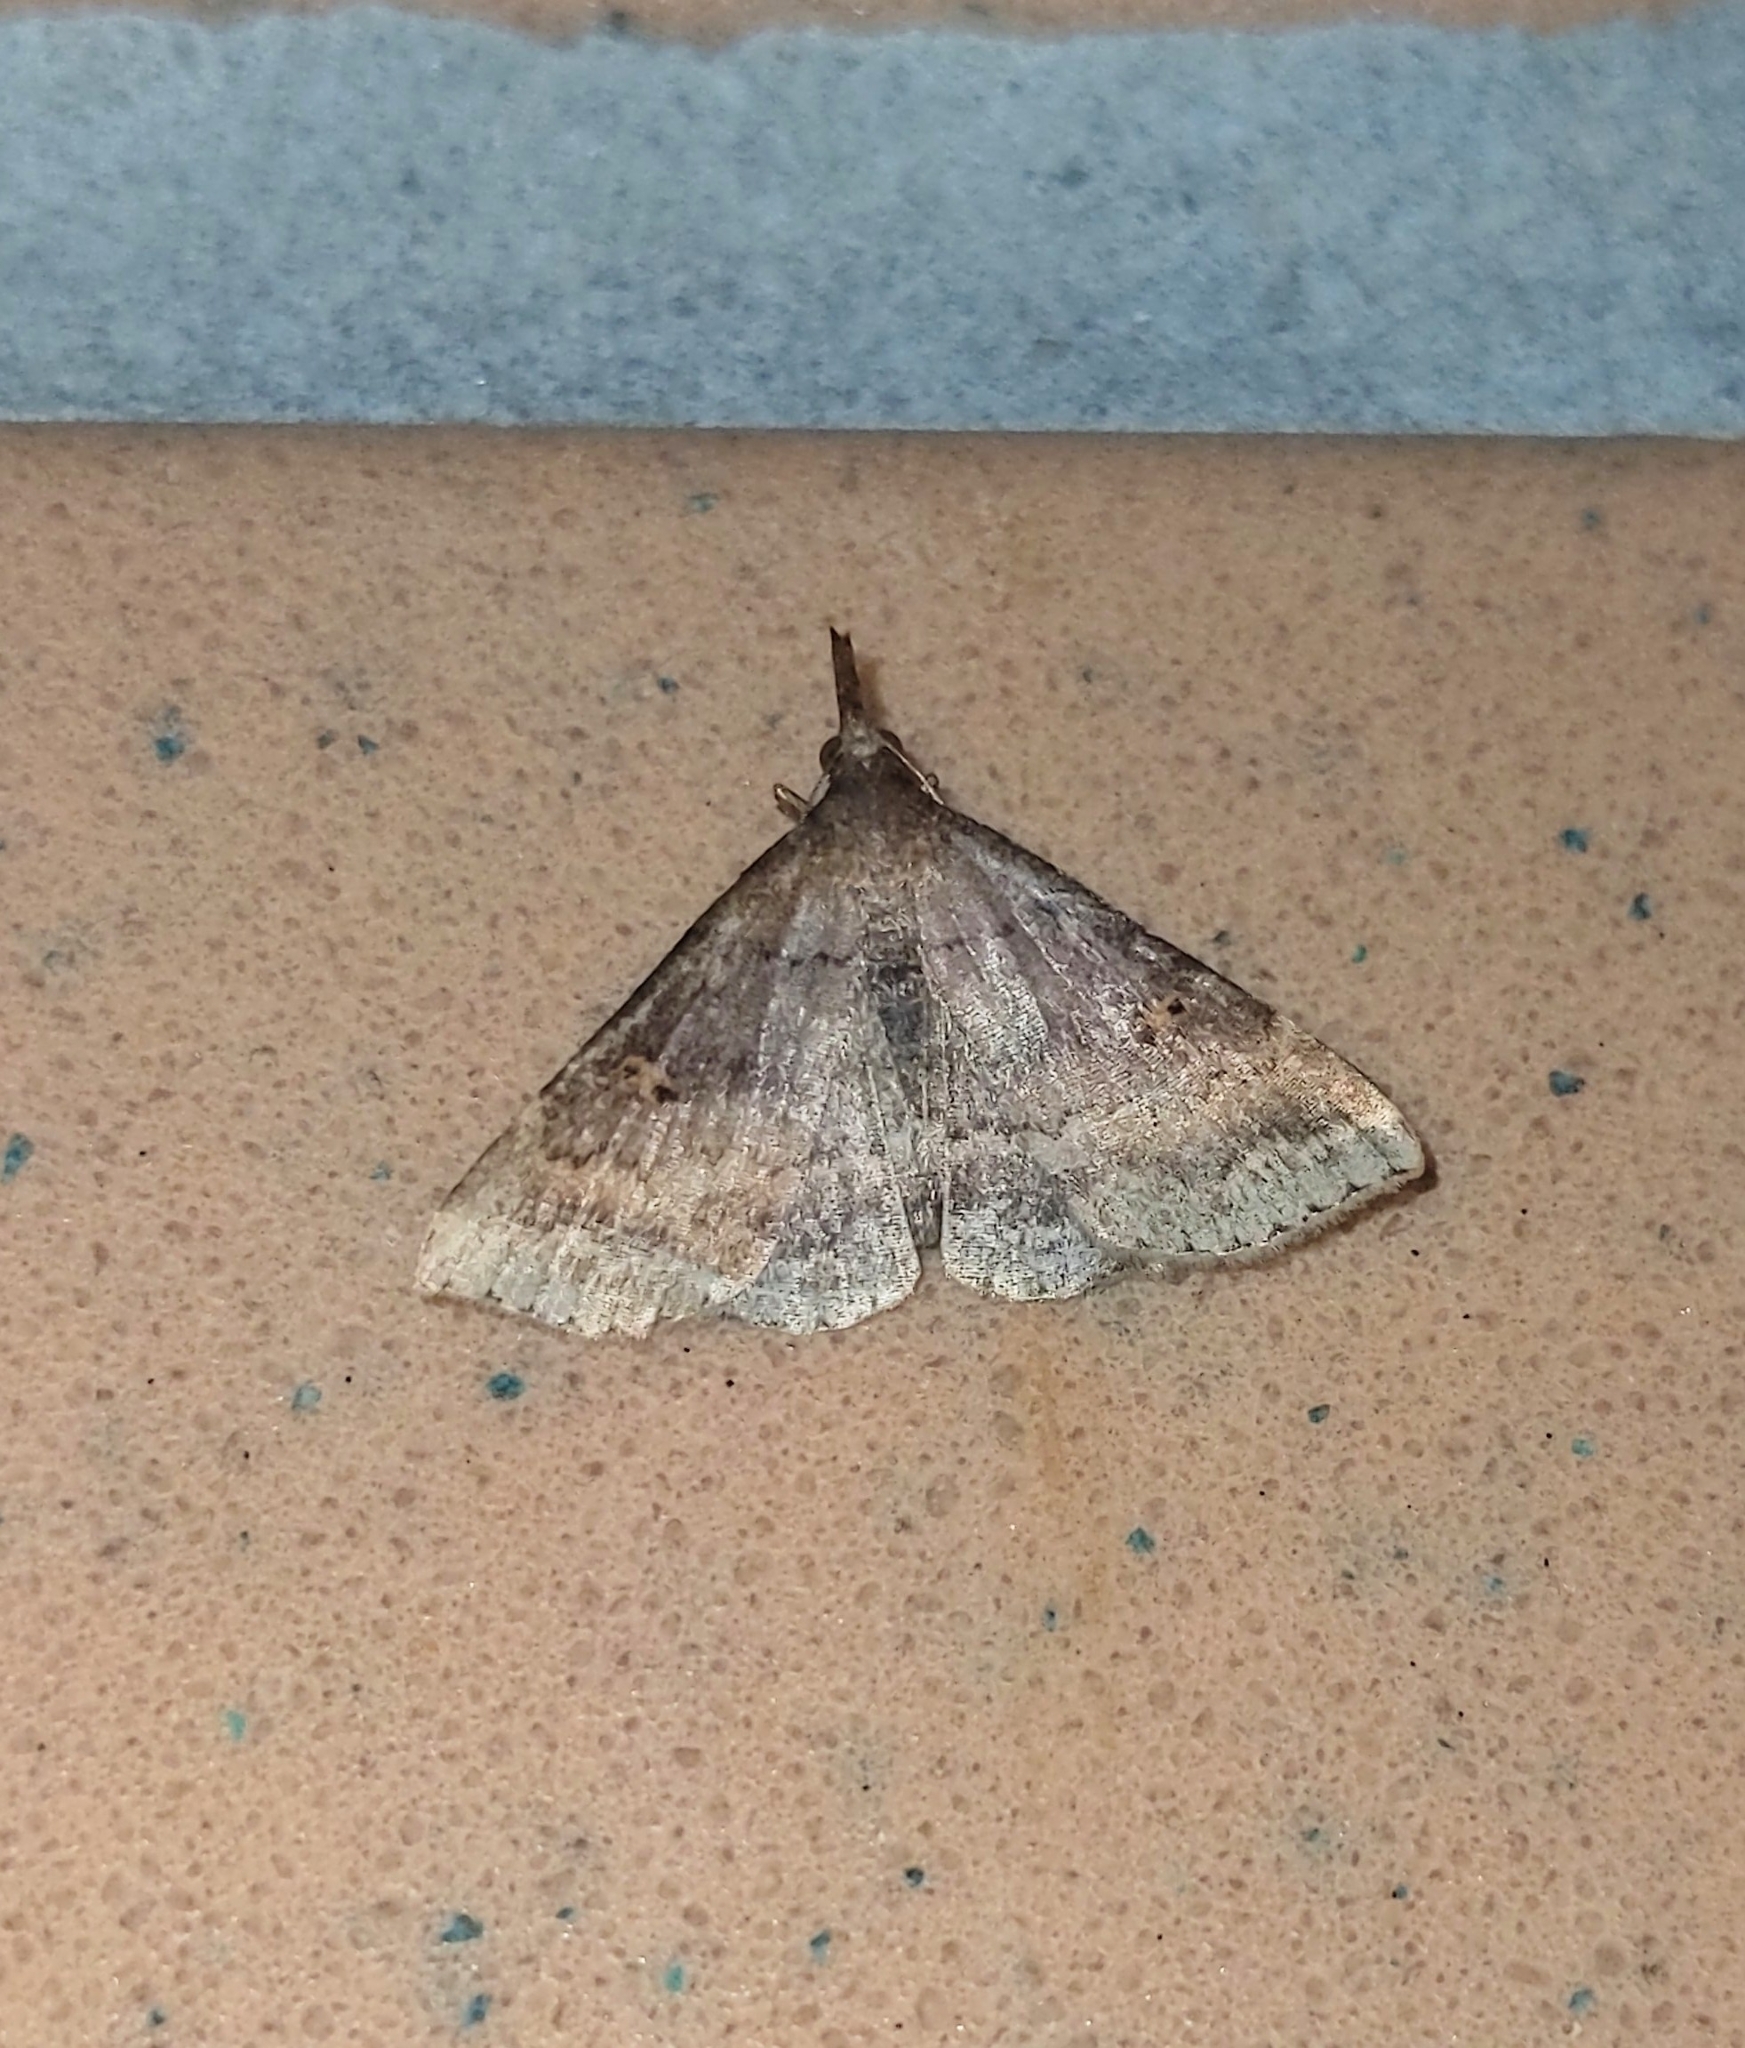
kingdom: Animalia
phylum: Arthropoda
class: Insecta
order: Lepidoptera
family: Erebidae
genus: Renia
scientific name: Renia factiosalis
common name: Sociable renia moth
